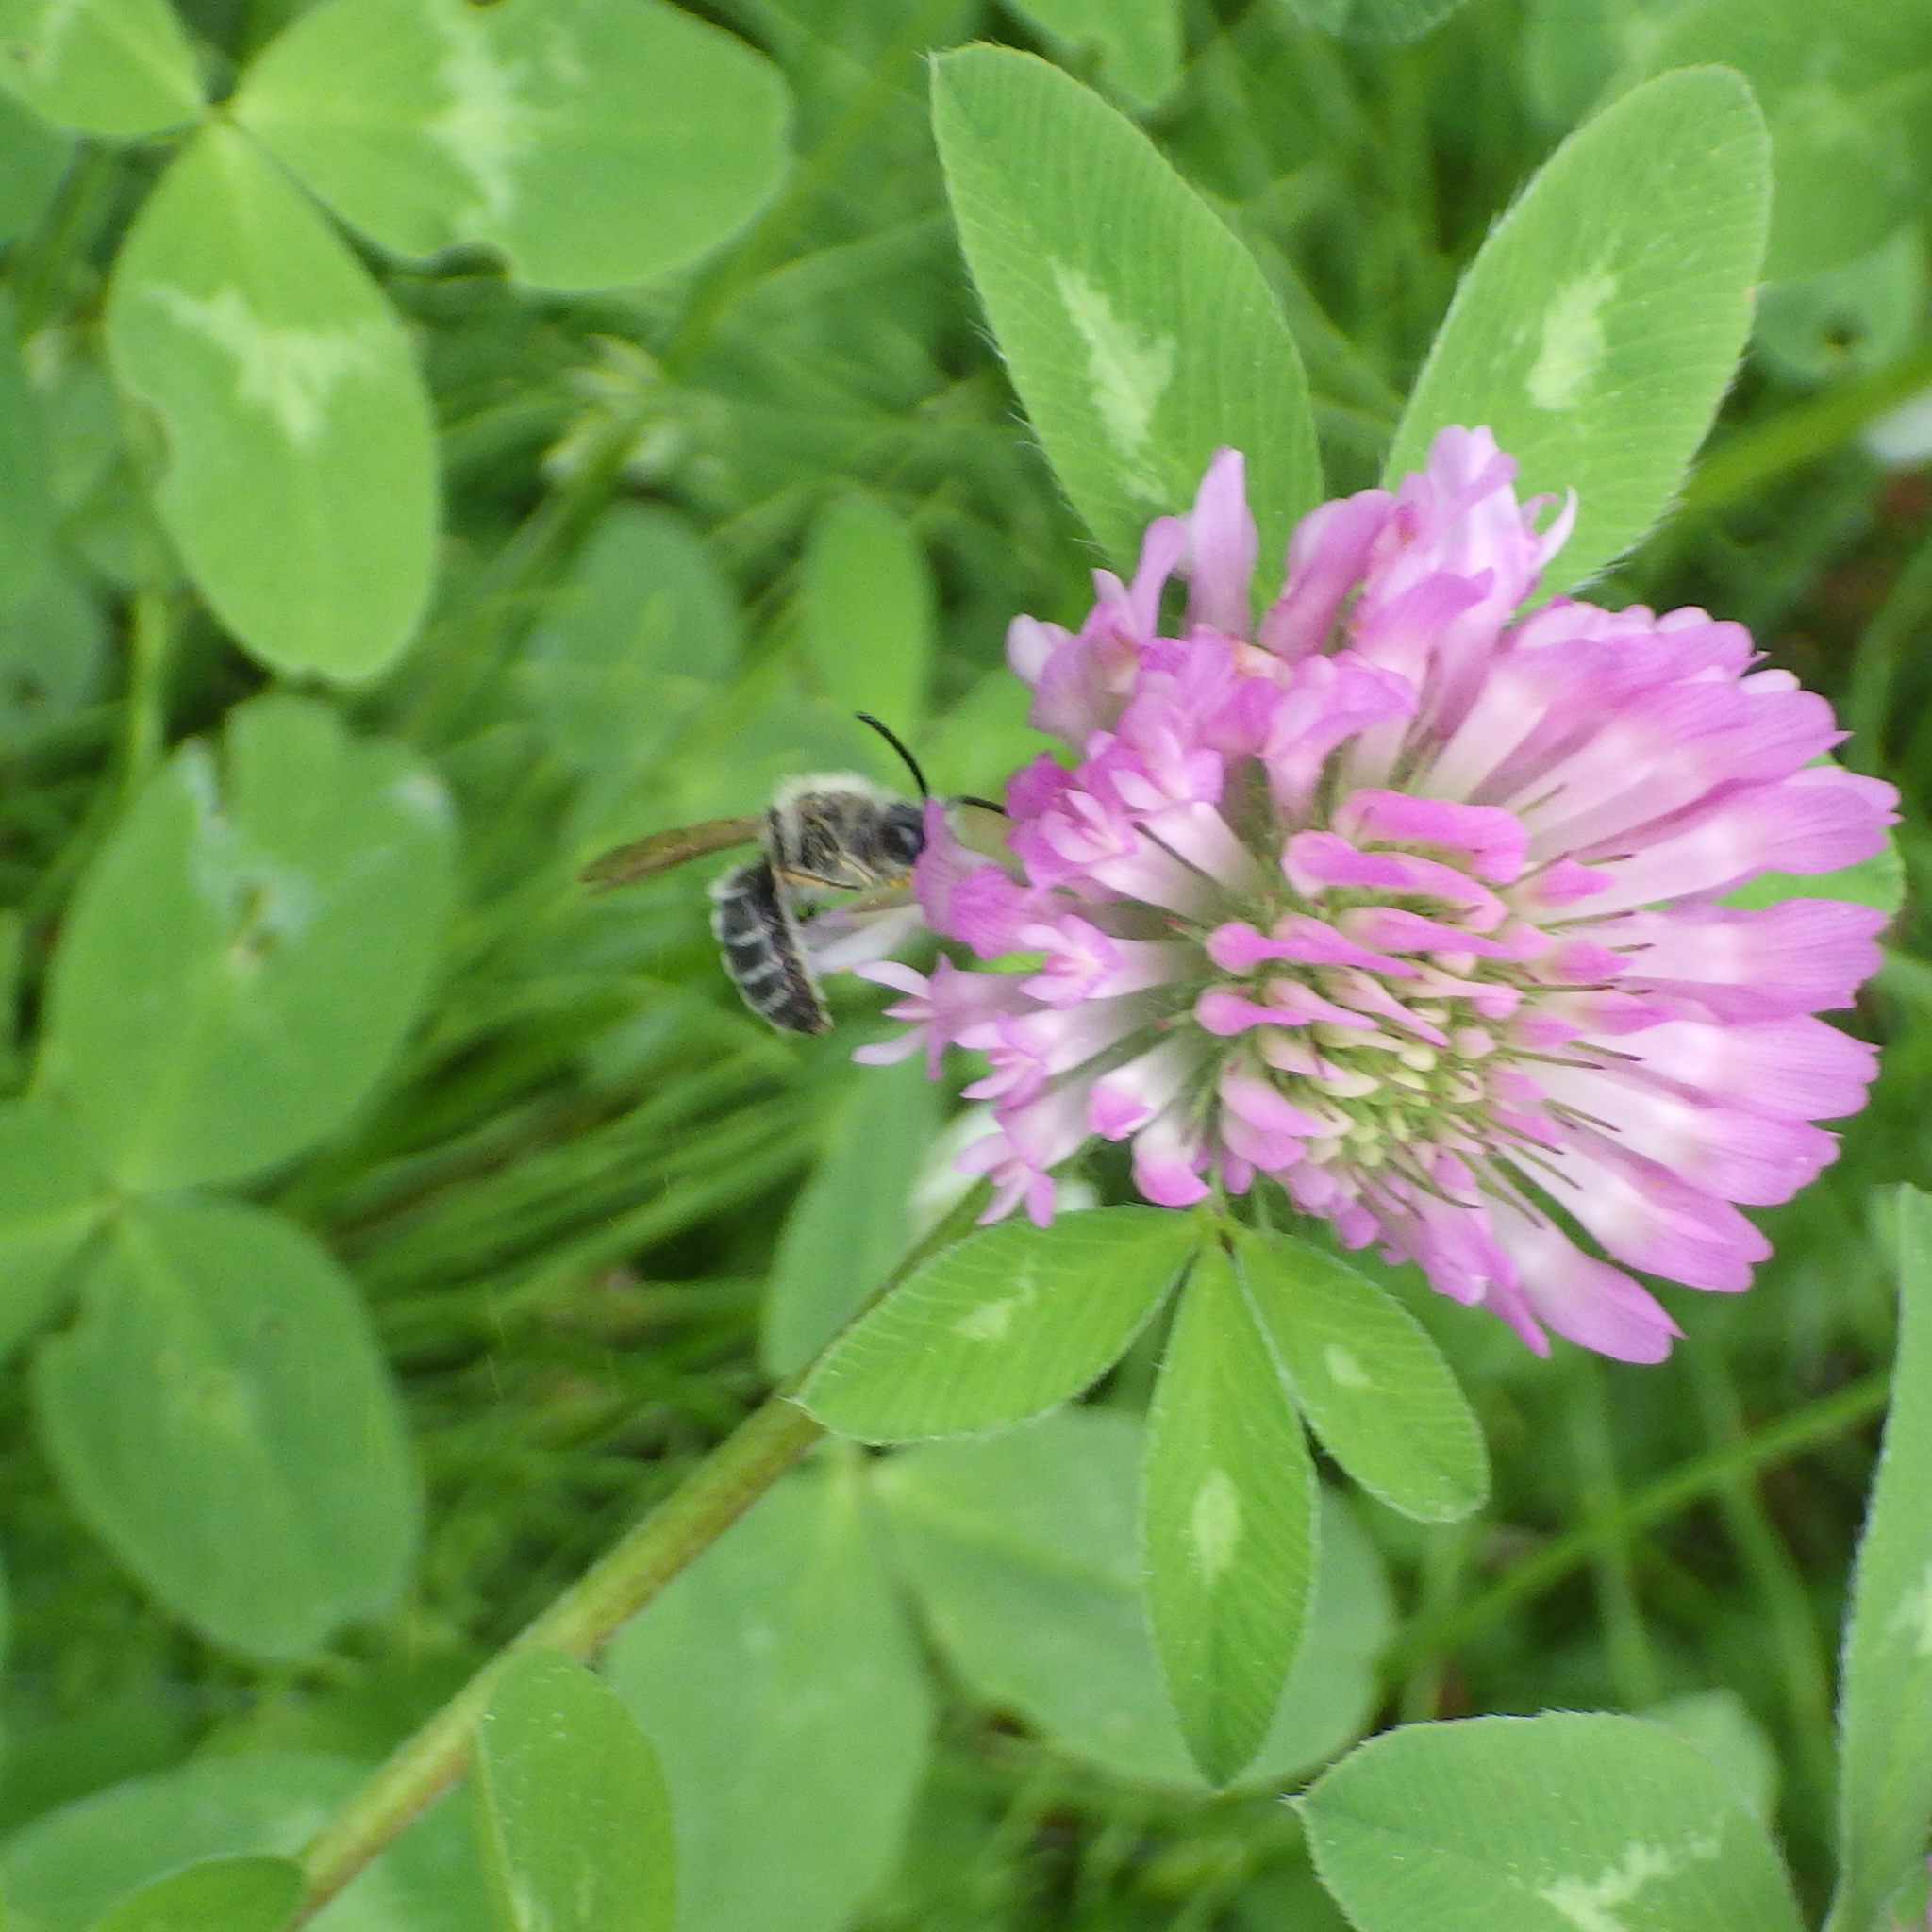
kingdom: Animalia
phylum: Arthropoda
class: Insecta
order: Hymenoptera
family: Andrenidae
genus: Andrena
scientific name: Andrena wilkella
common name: Wilke's mining bee
